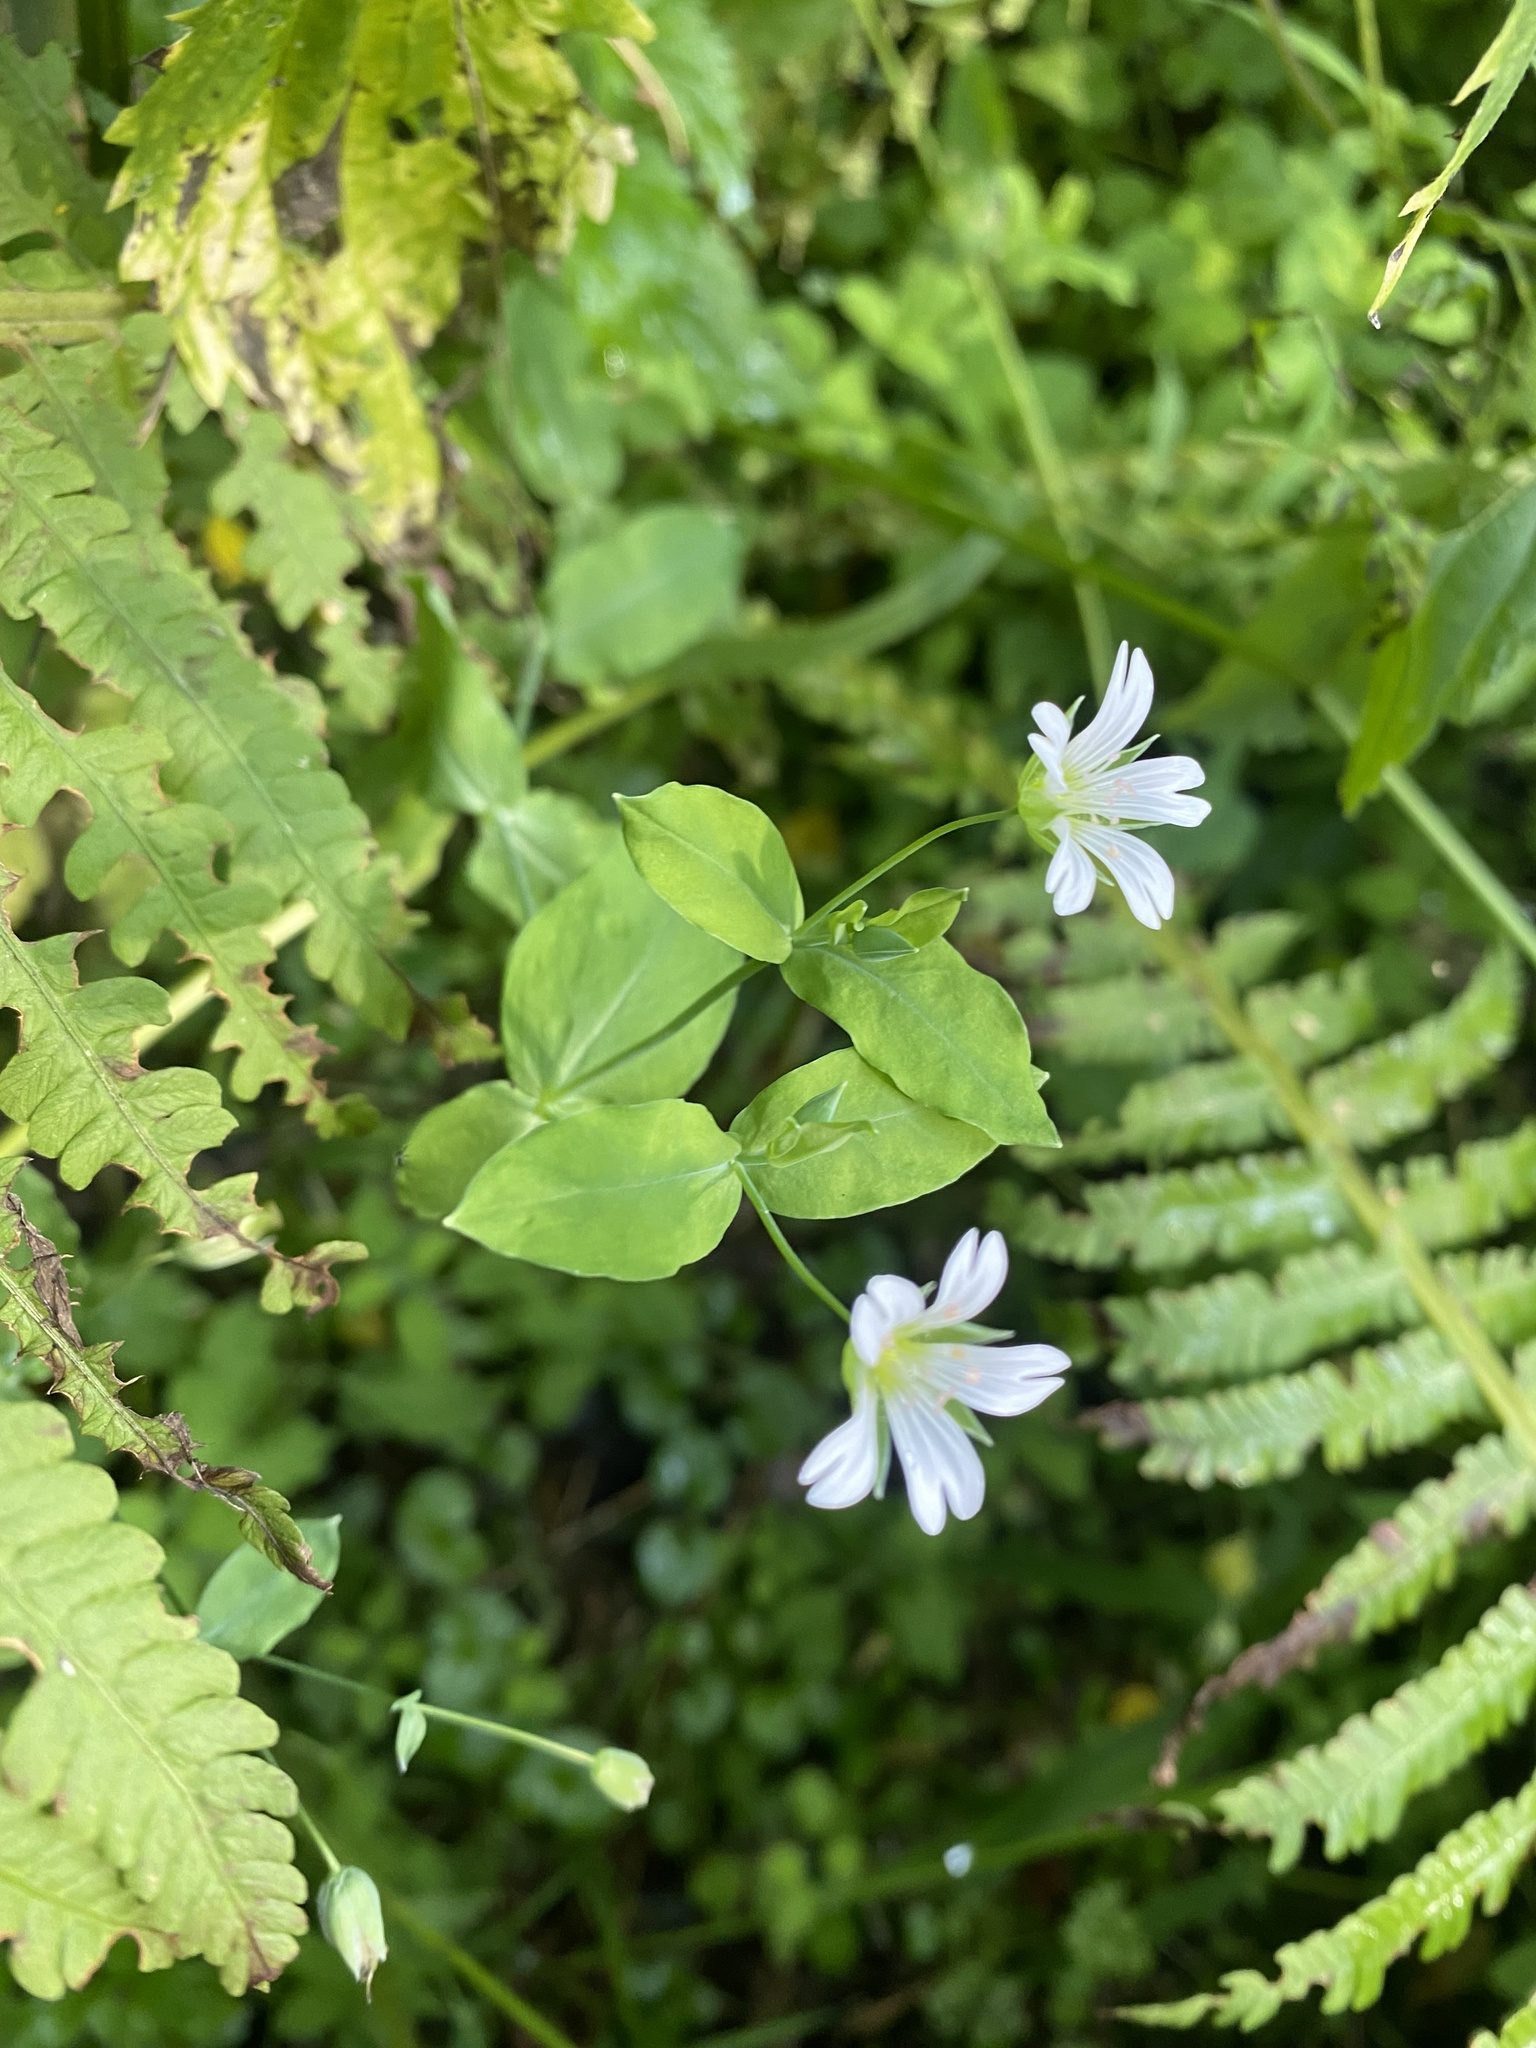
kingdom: Plantae
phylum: Tracheophyta
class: Magnoliopsida
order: Caryophyllales
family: Caryophyllaceae
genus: Cerastium
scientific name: Cerastium davuricum
